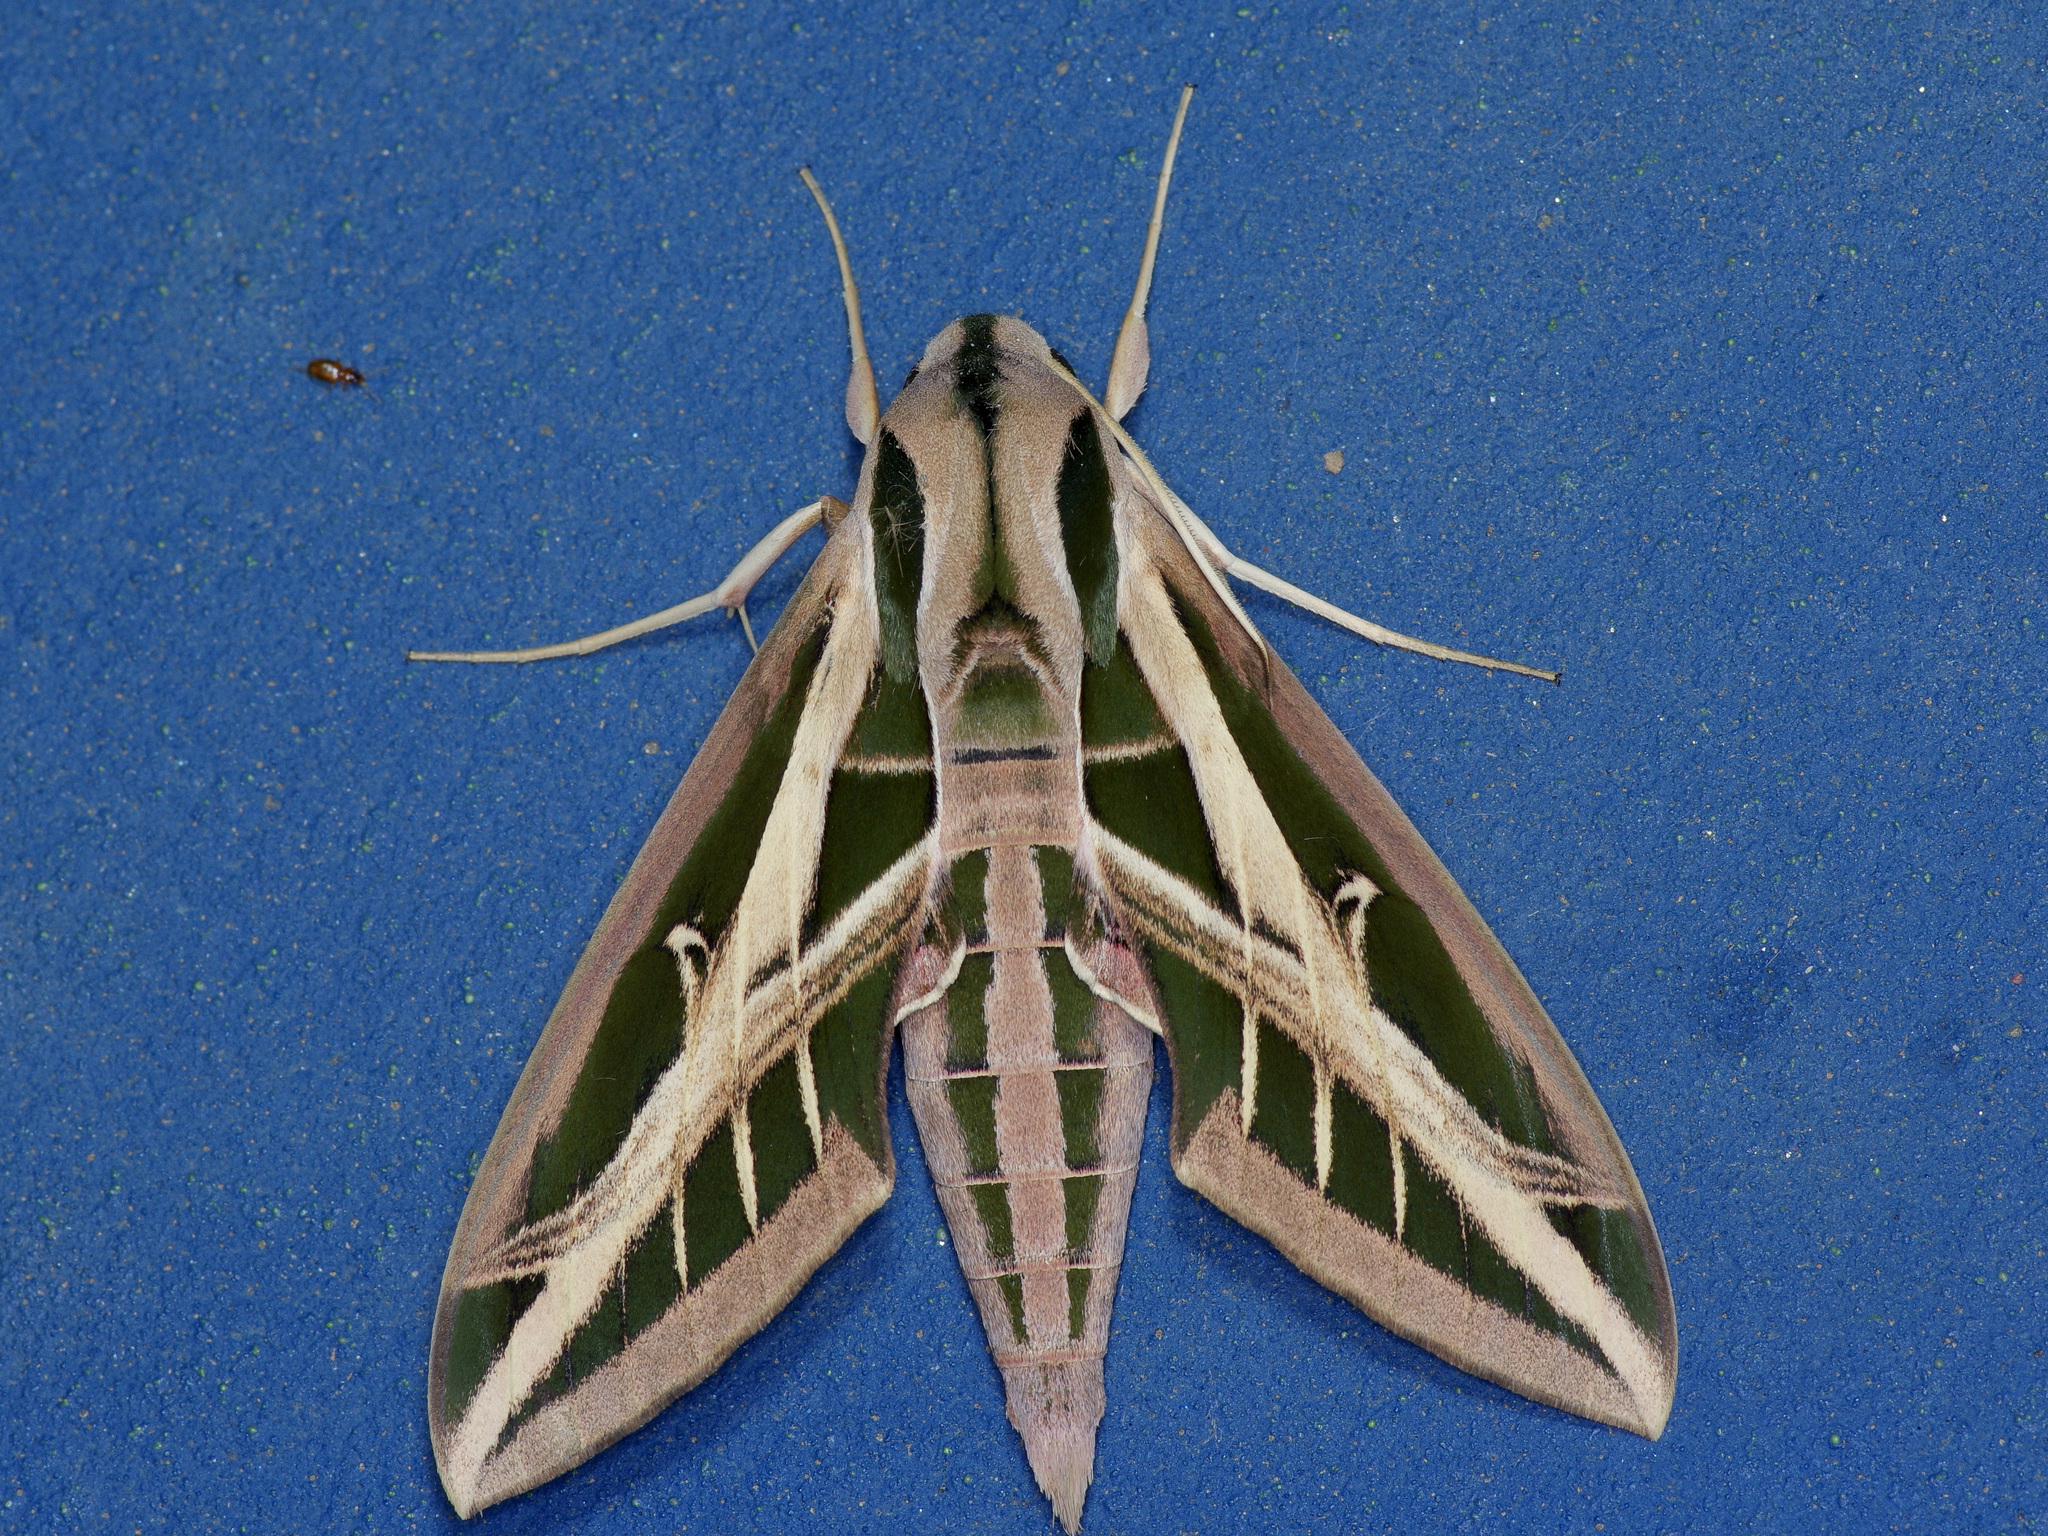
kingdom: Animalia
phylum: Arthropoda
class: Insecta
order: Lepidoptera
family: Sphingidae
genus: Eumorpha
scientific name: Eumorpha fasciatus
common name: Banded sphinx
